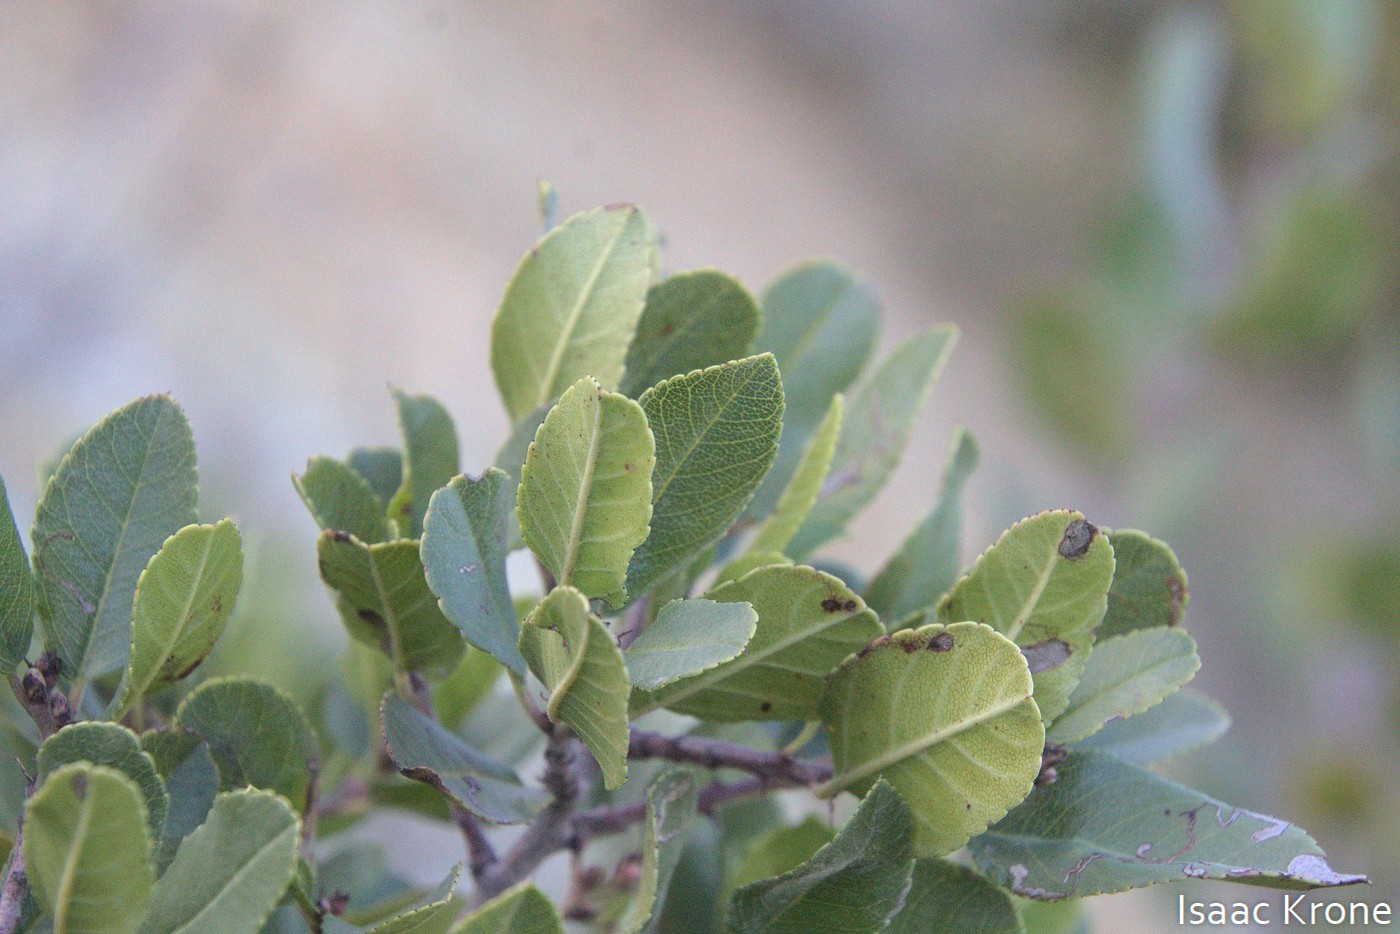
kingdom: Plantae
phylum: Tracheophyta
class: Magnoliopsida
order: Rosales
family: Rhamnaceae
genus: Endotropis
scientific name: Endotropis crocea
